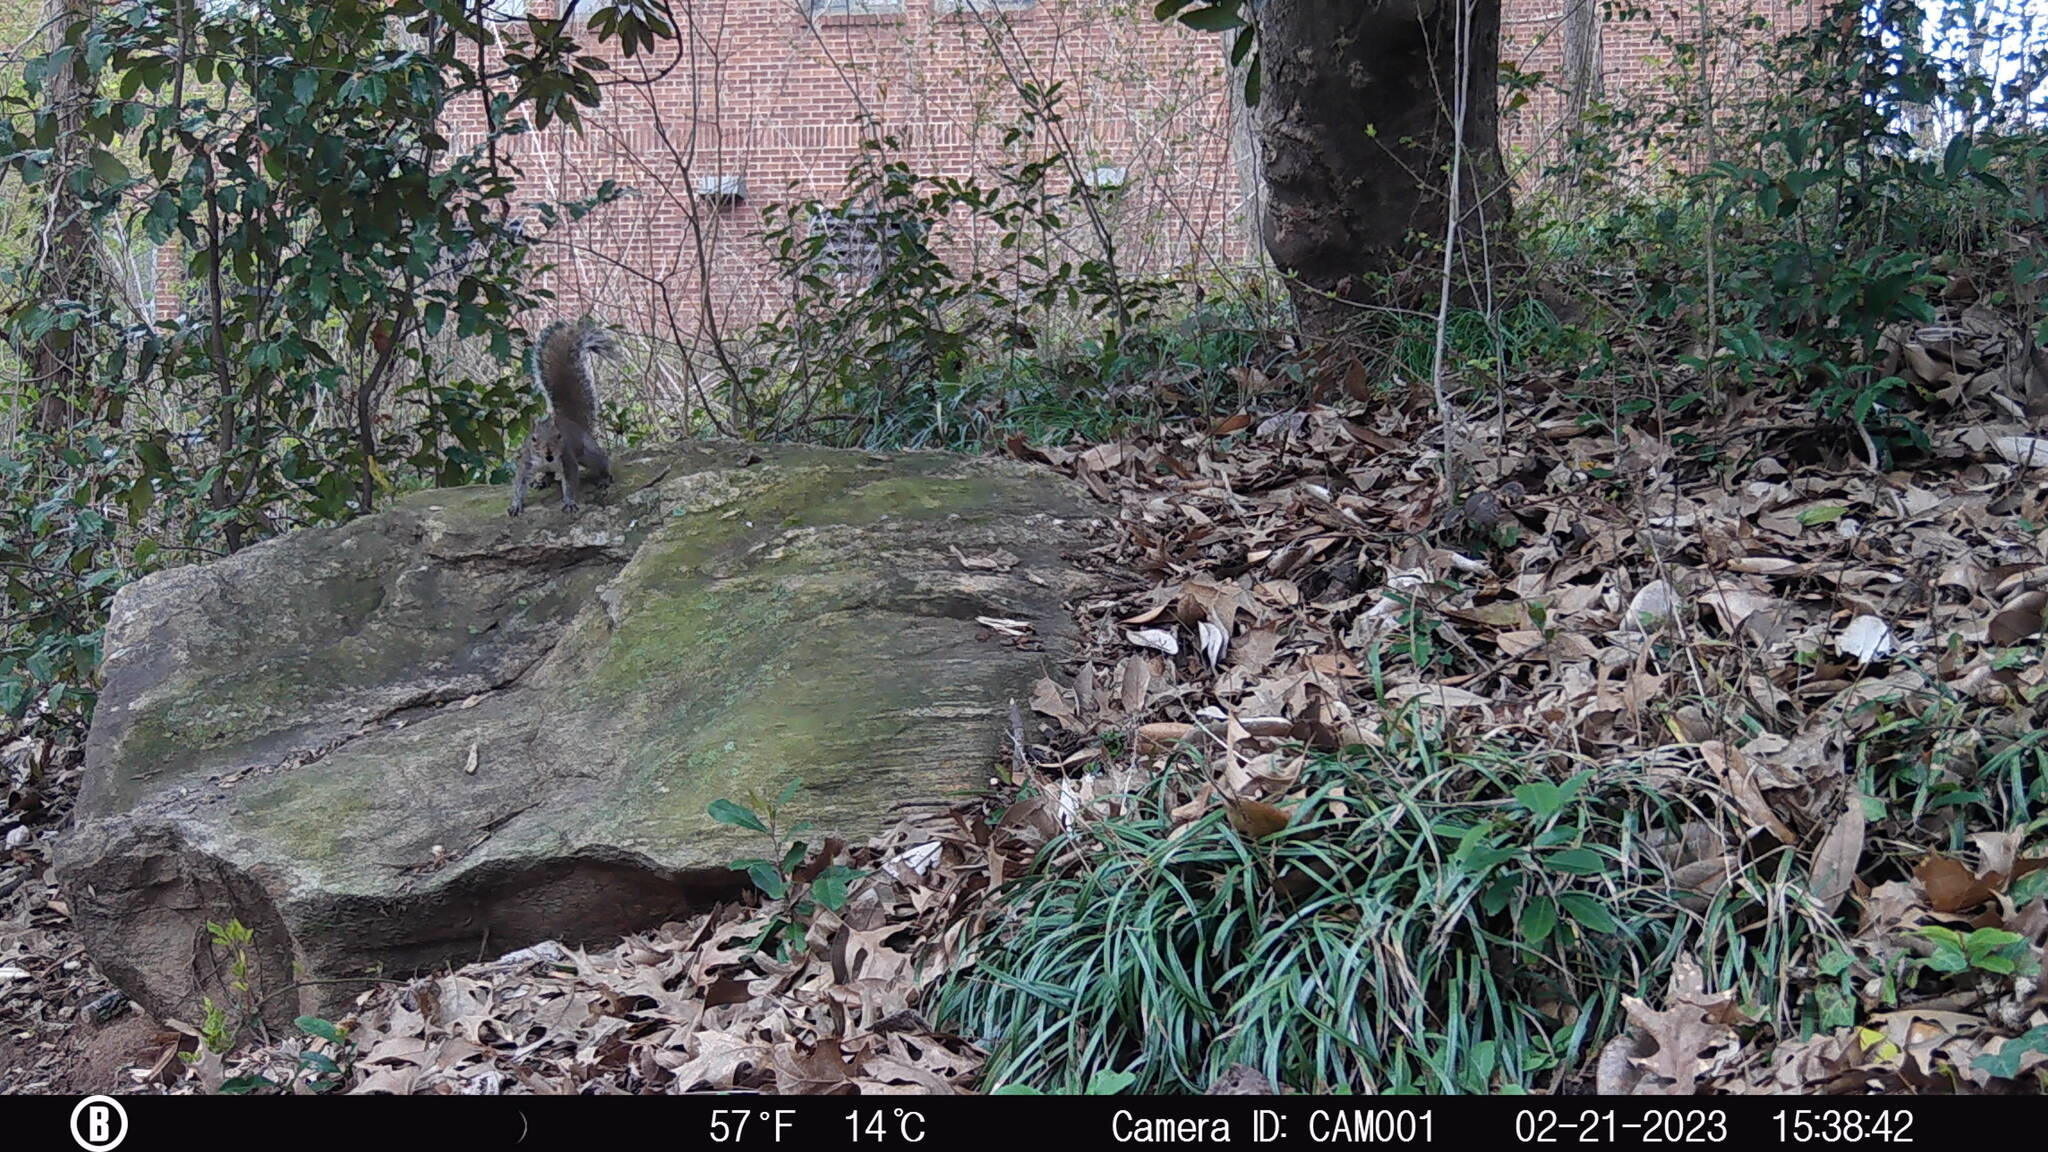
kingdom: Animalia
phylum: Chordata
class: Mammalia
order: Rodentia
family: Sciuridae
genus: Sciurus
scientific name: Sciurus carolinensis
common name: Eastern gray squirrel
